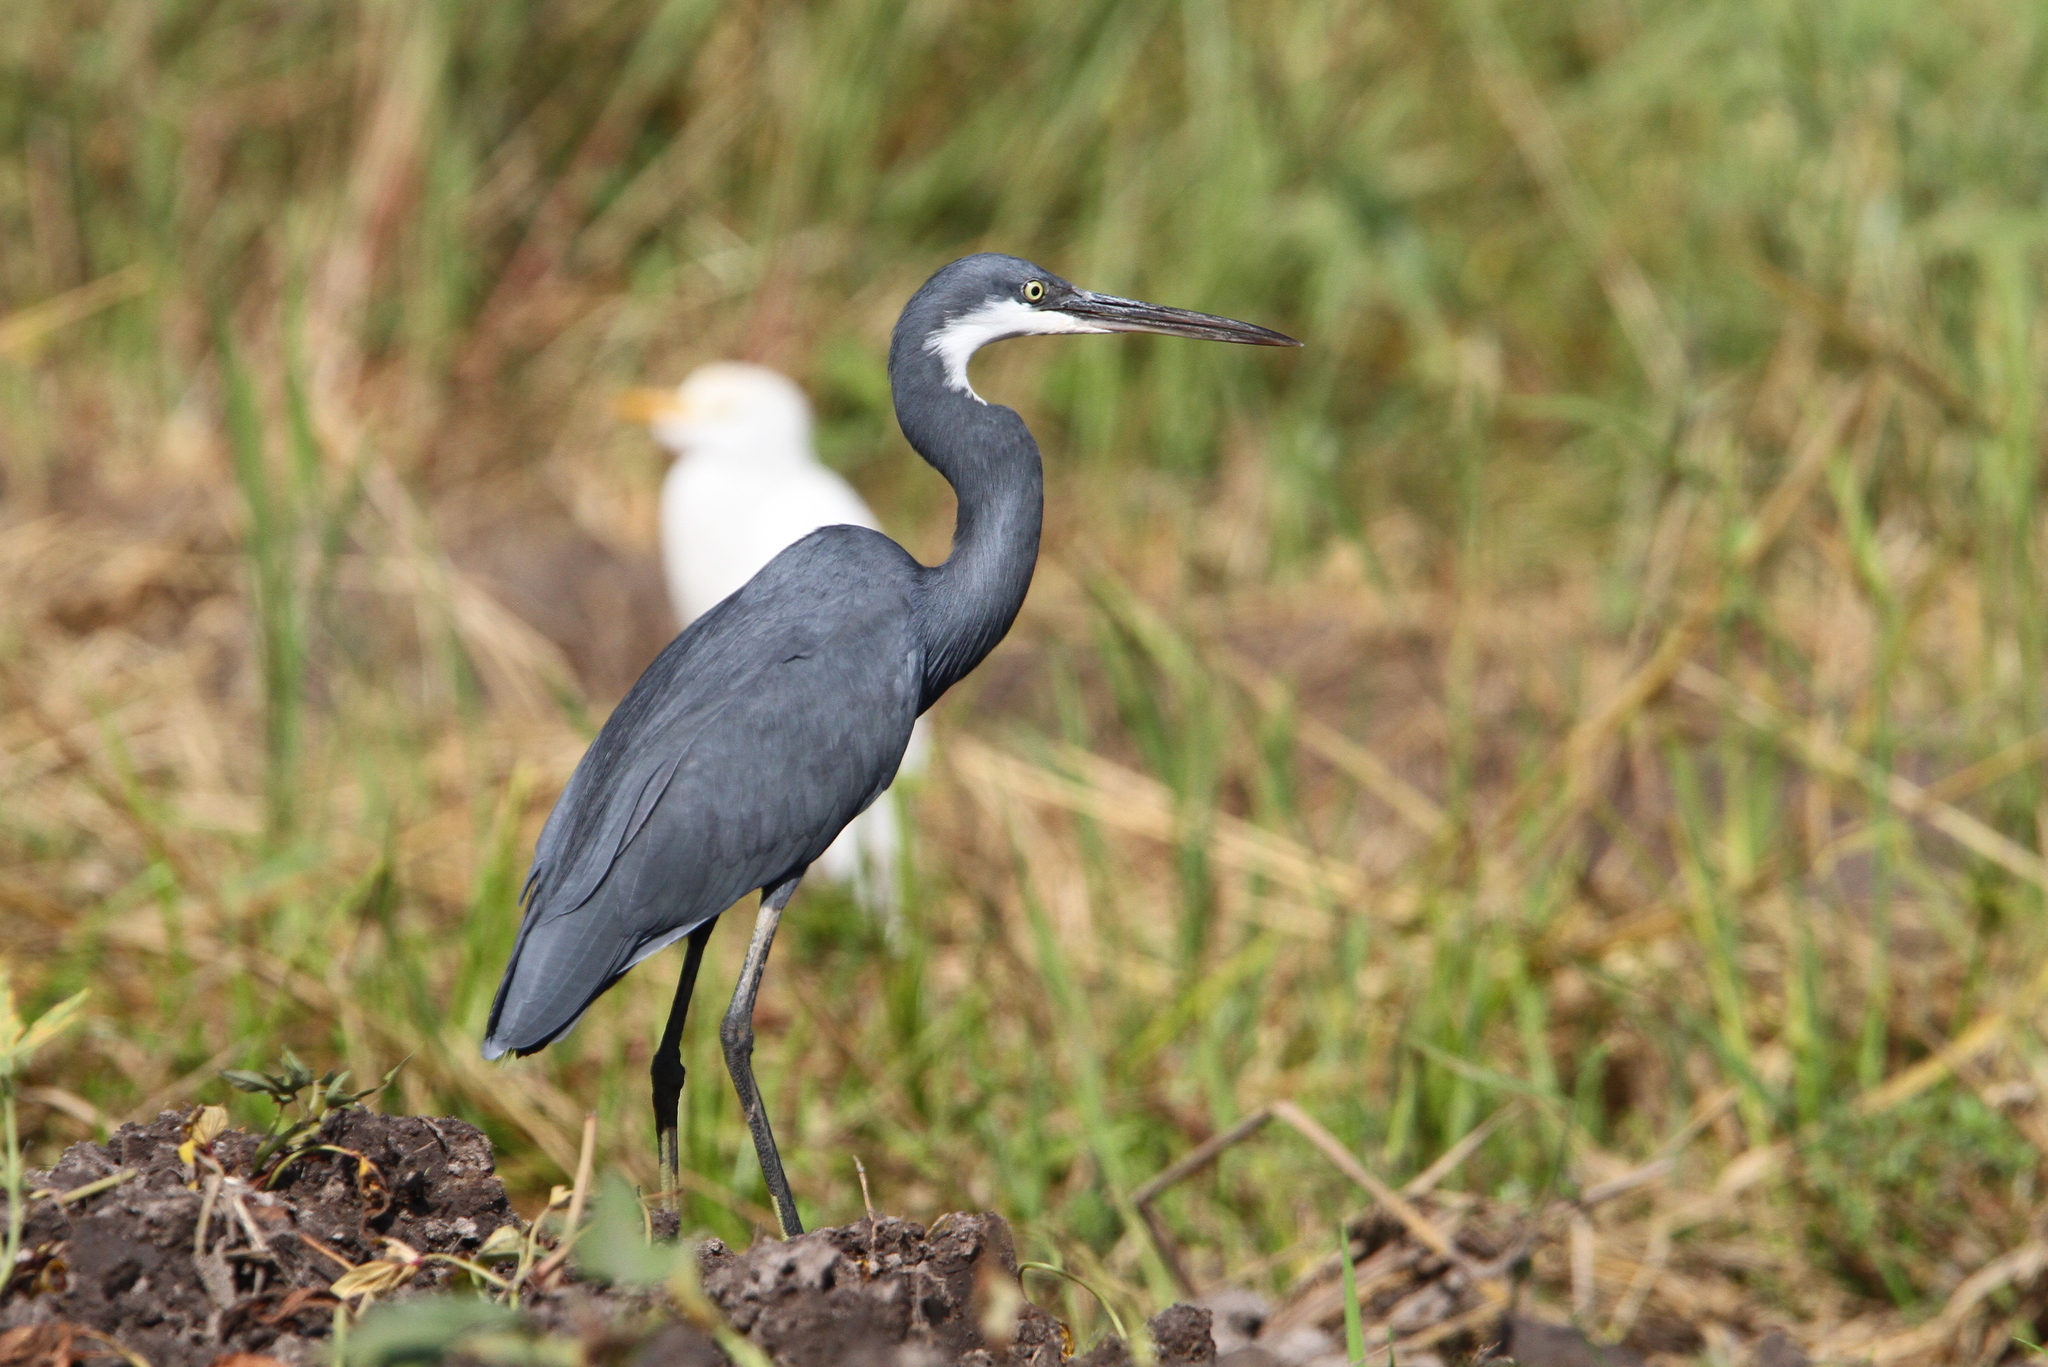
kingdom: Animalia
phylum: Chordata
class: Aves
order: Pelecaniformes
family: Ardeidae
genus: Egretta
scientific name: Egretta gularis
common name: Western reef-heron
